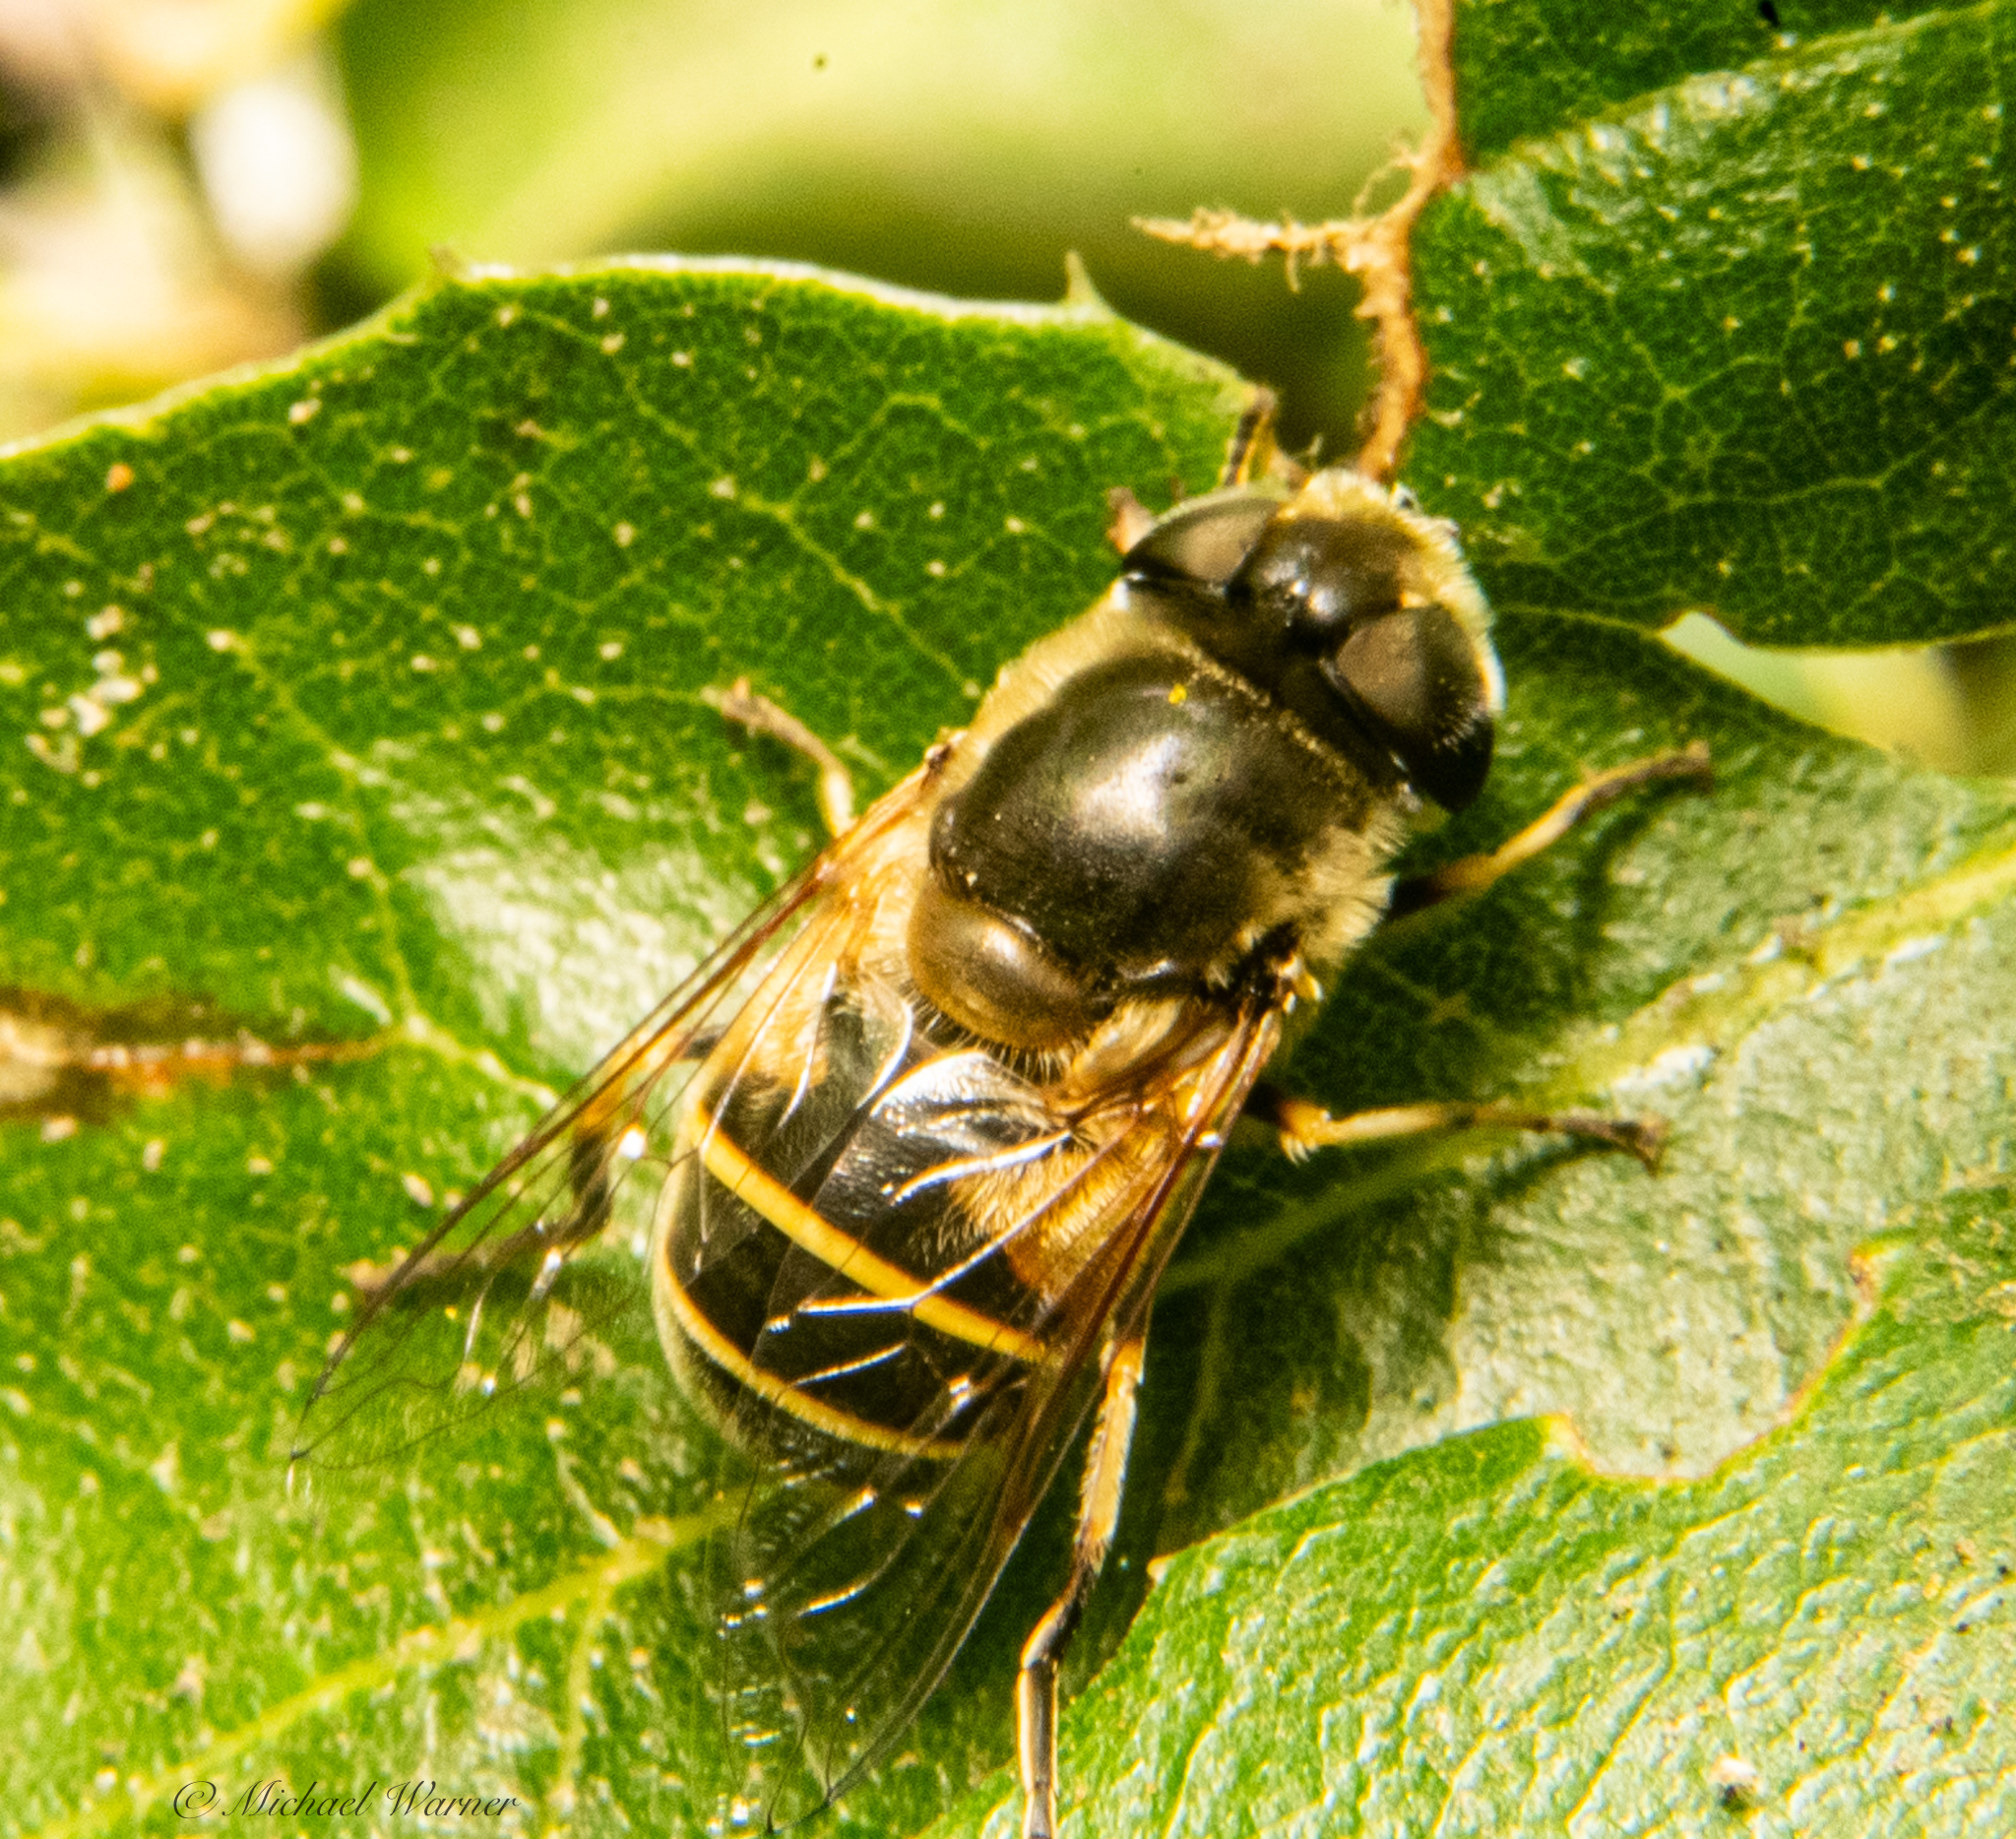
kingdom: Animalia
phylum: Arthropoda
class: Insecta
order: Diptera
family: Syrphidae
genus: Eristalis
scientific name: Eristalis hirta
